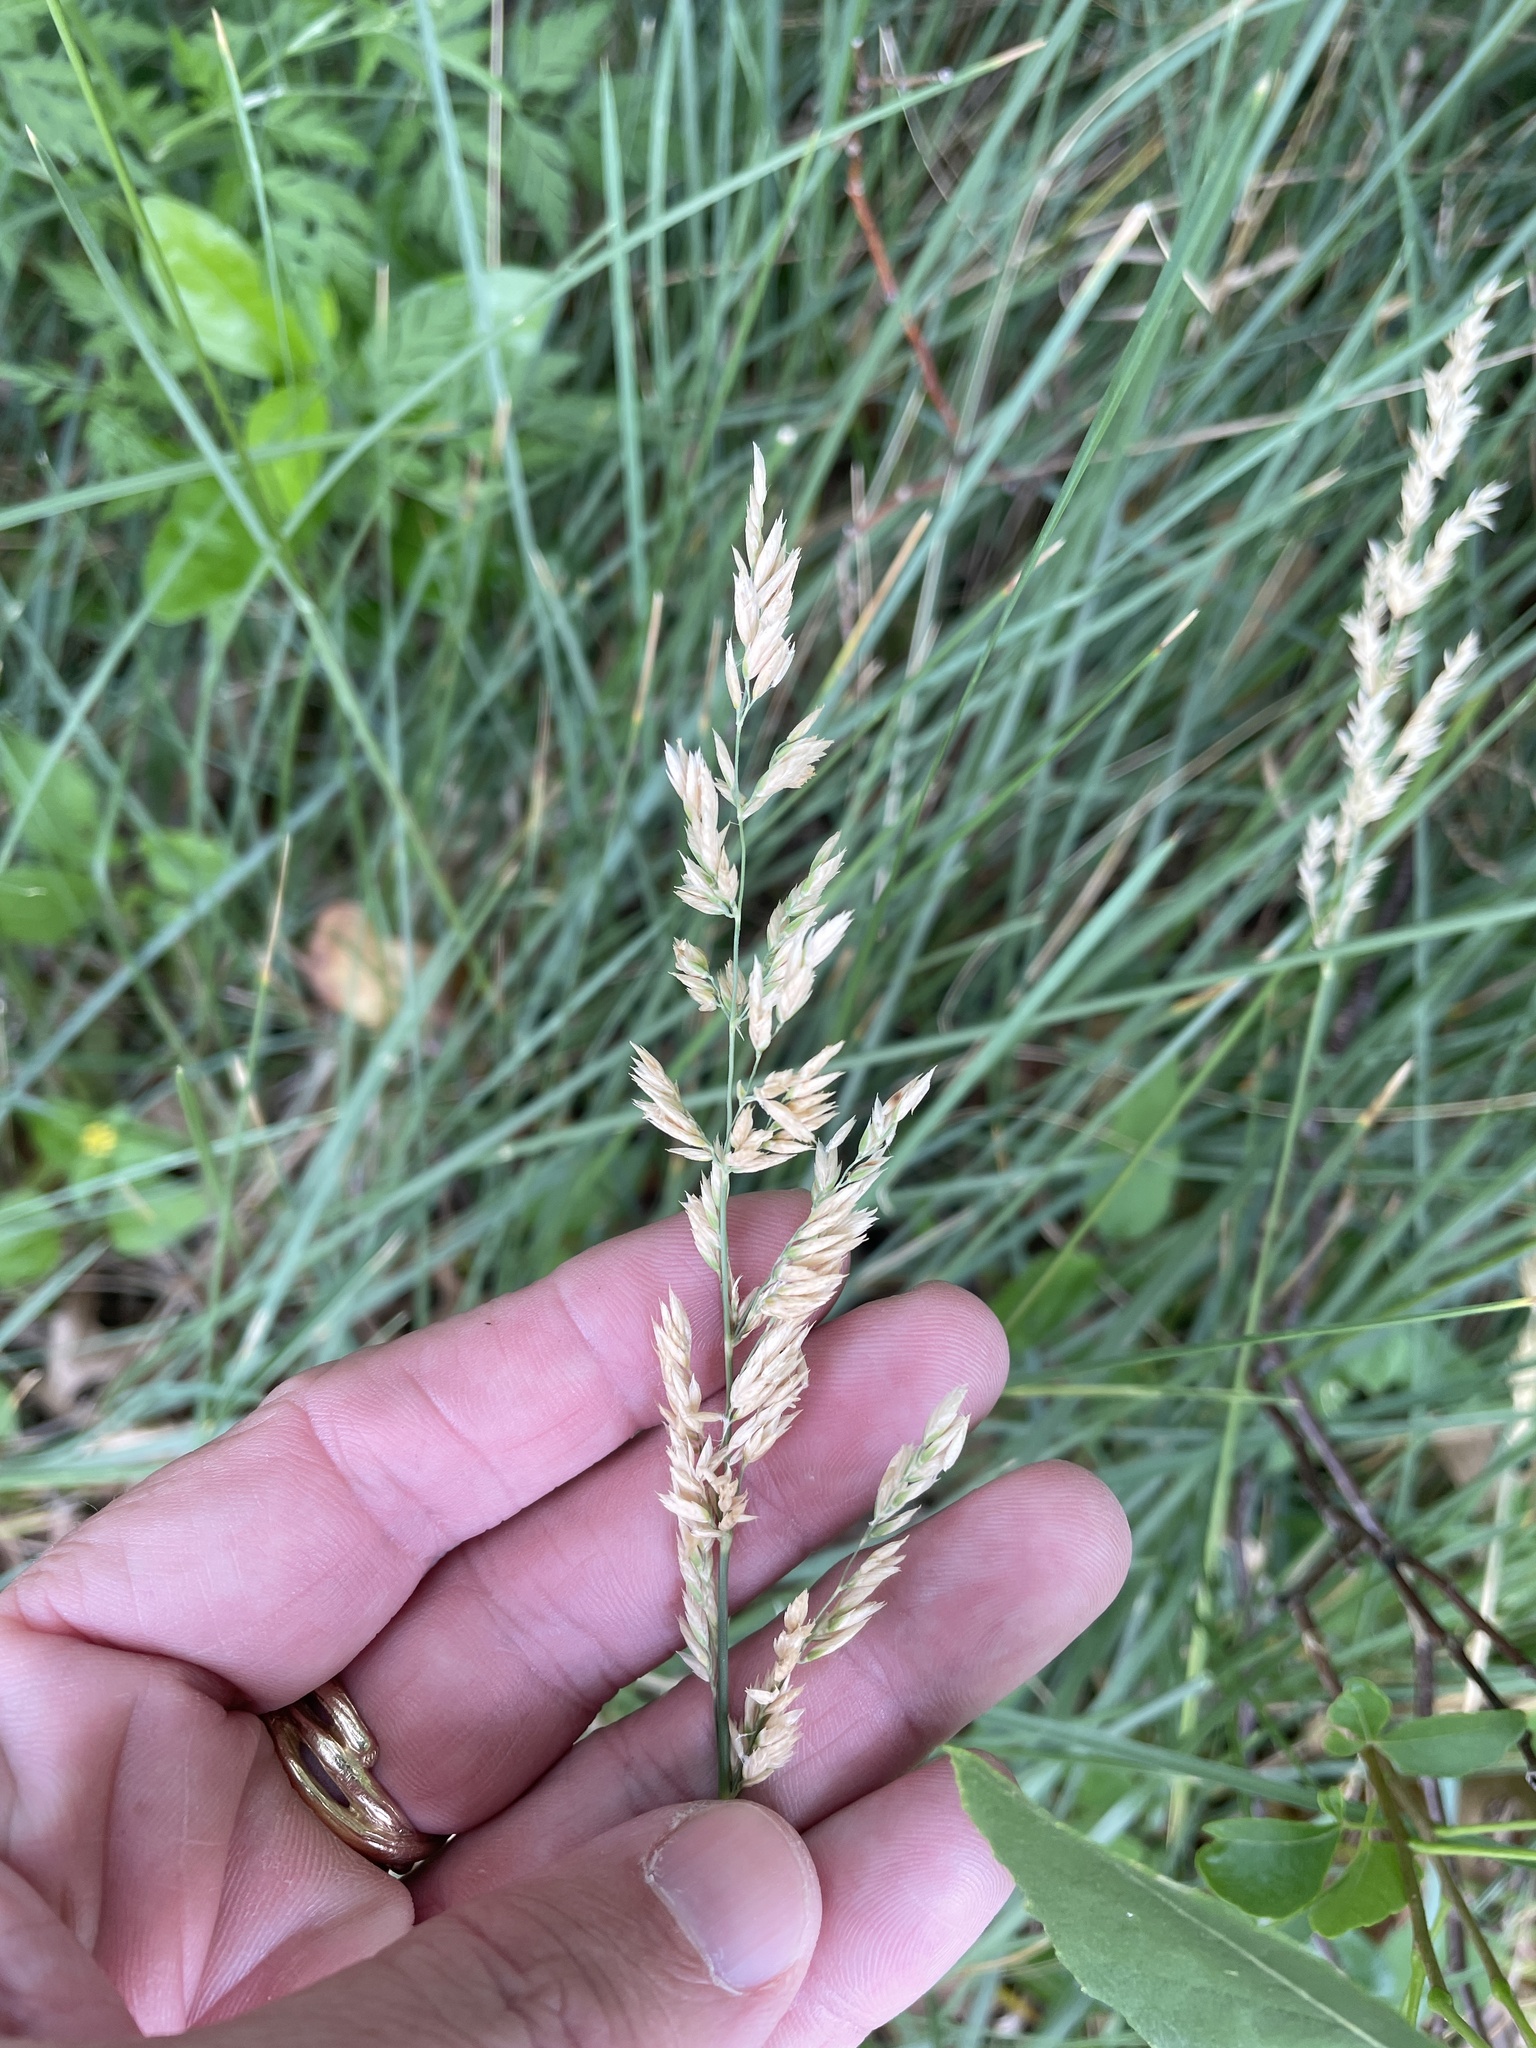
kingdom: Plantae
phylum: Tracheophyta
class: Liliopsida
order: Poales
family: Poaceae
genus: Poa
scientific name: Poa arachnifera
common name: Texas bluegrass
